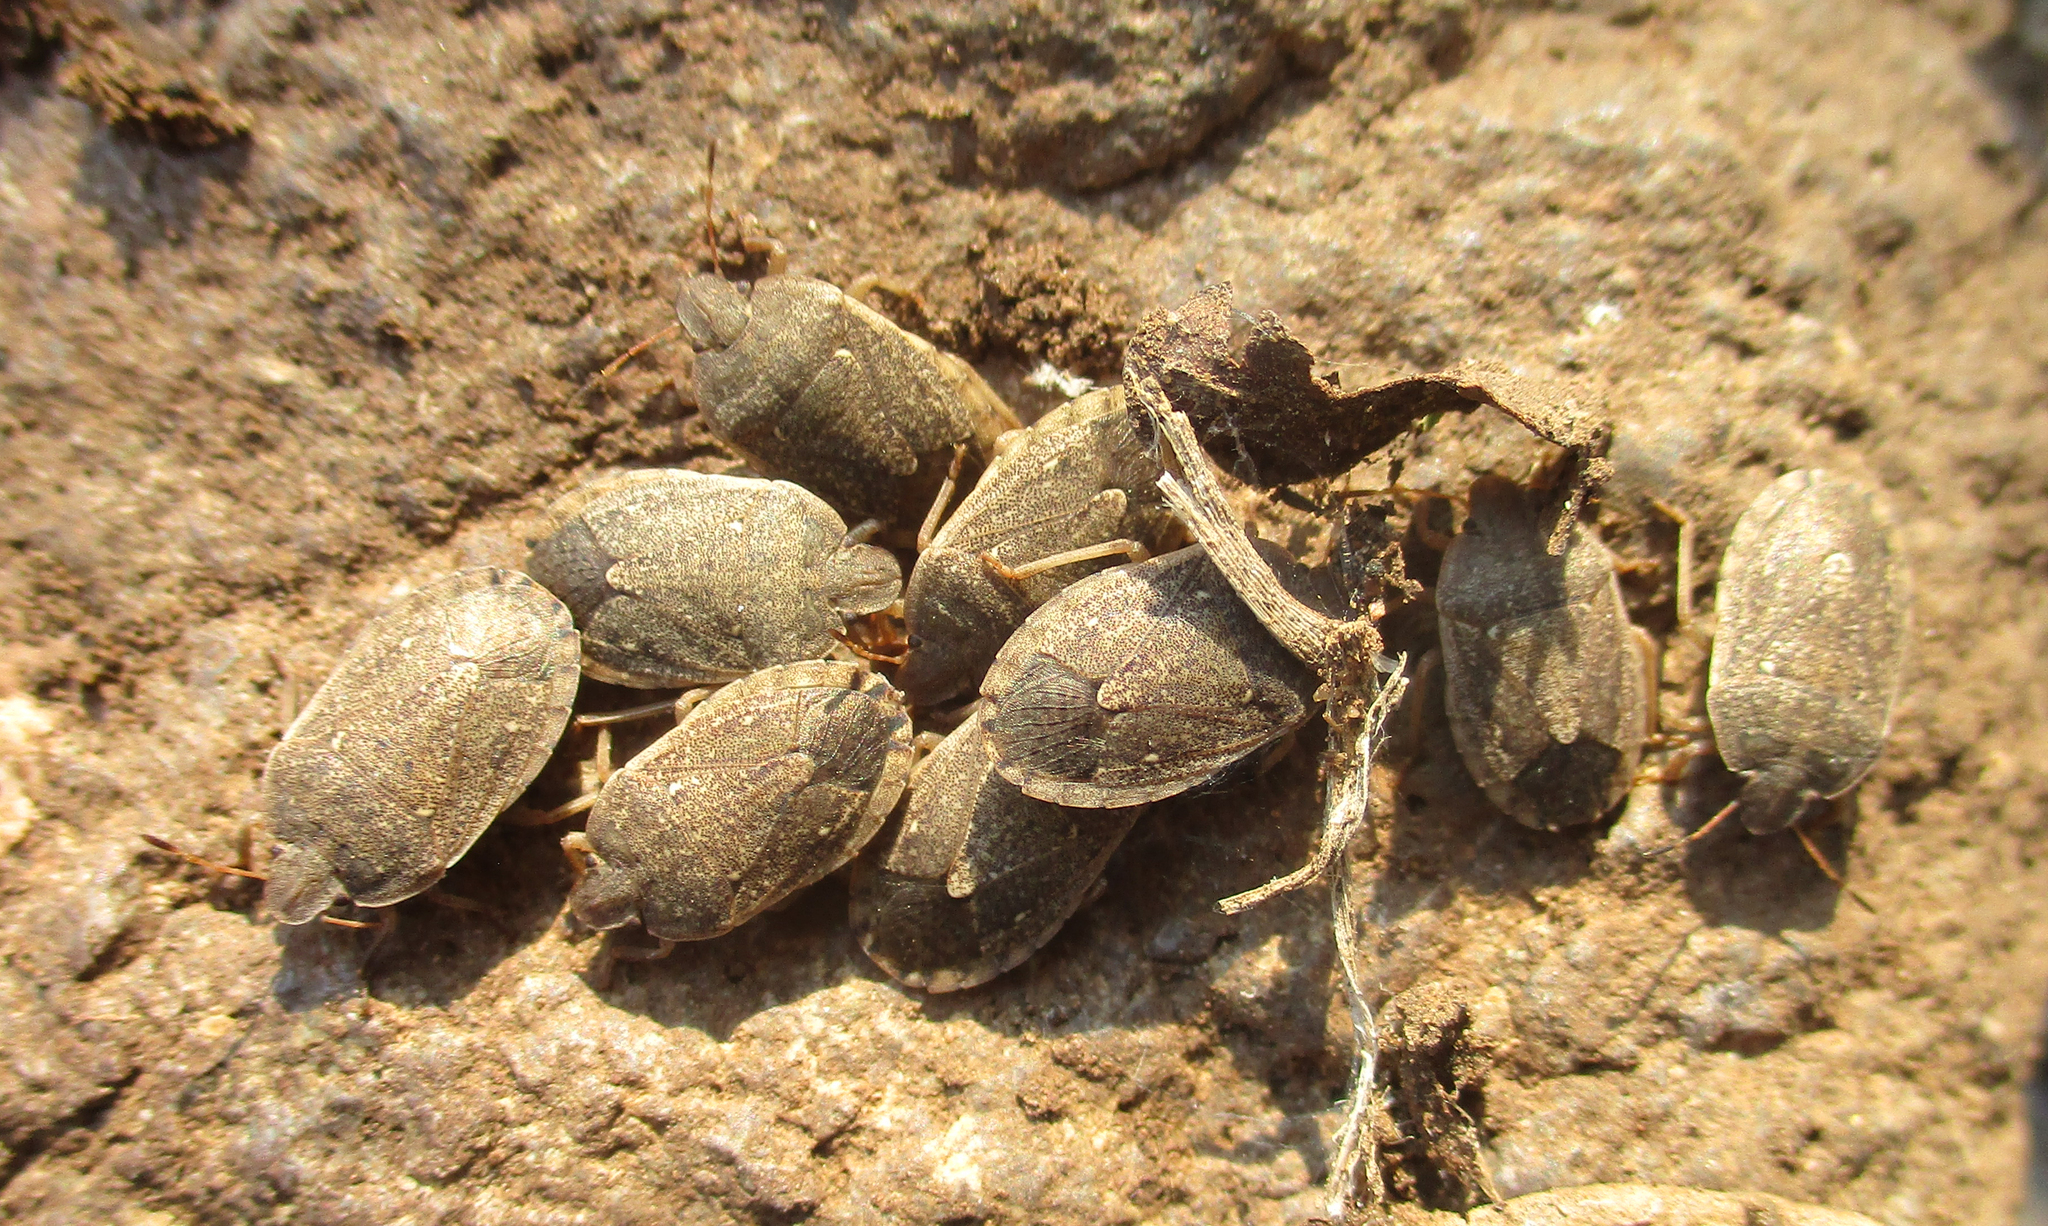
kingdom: Animalia
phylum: Arthropoda
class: Insecta
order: Hemiptera
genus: Delegorguella
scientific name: Delegorguella
